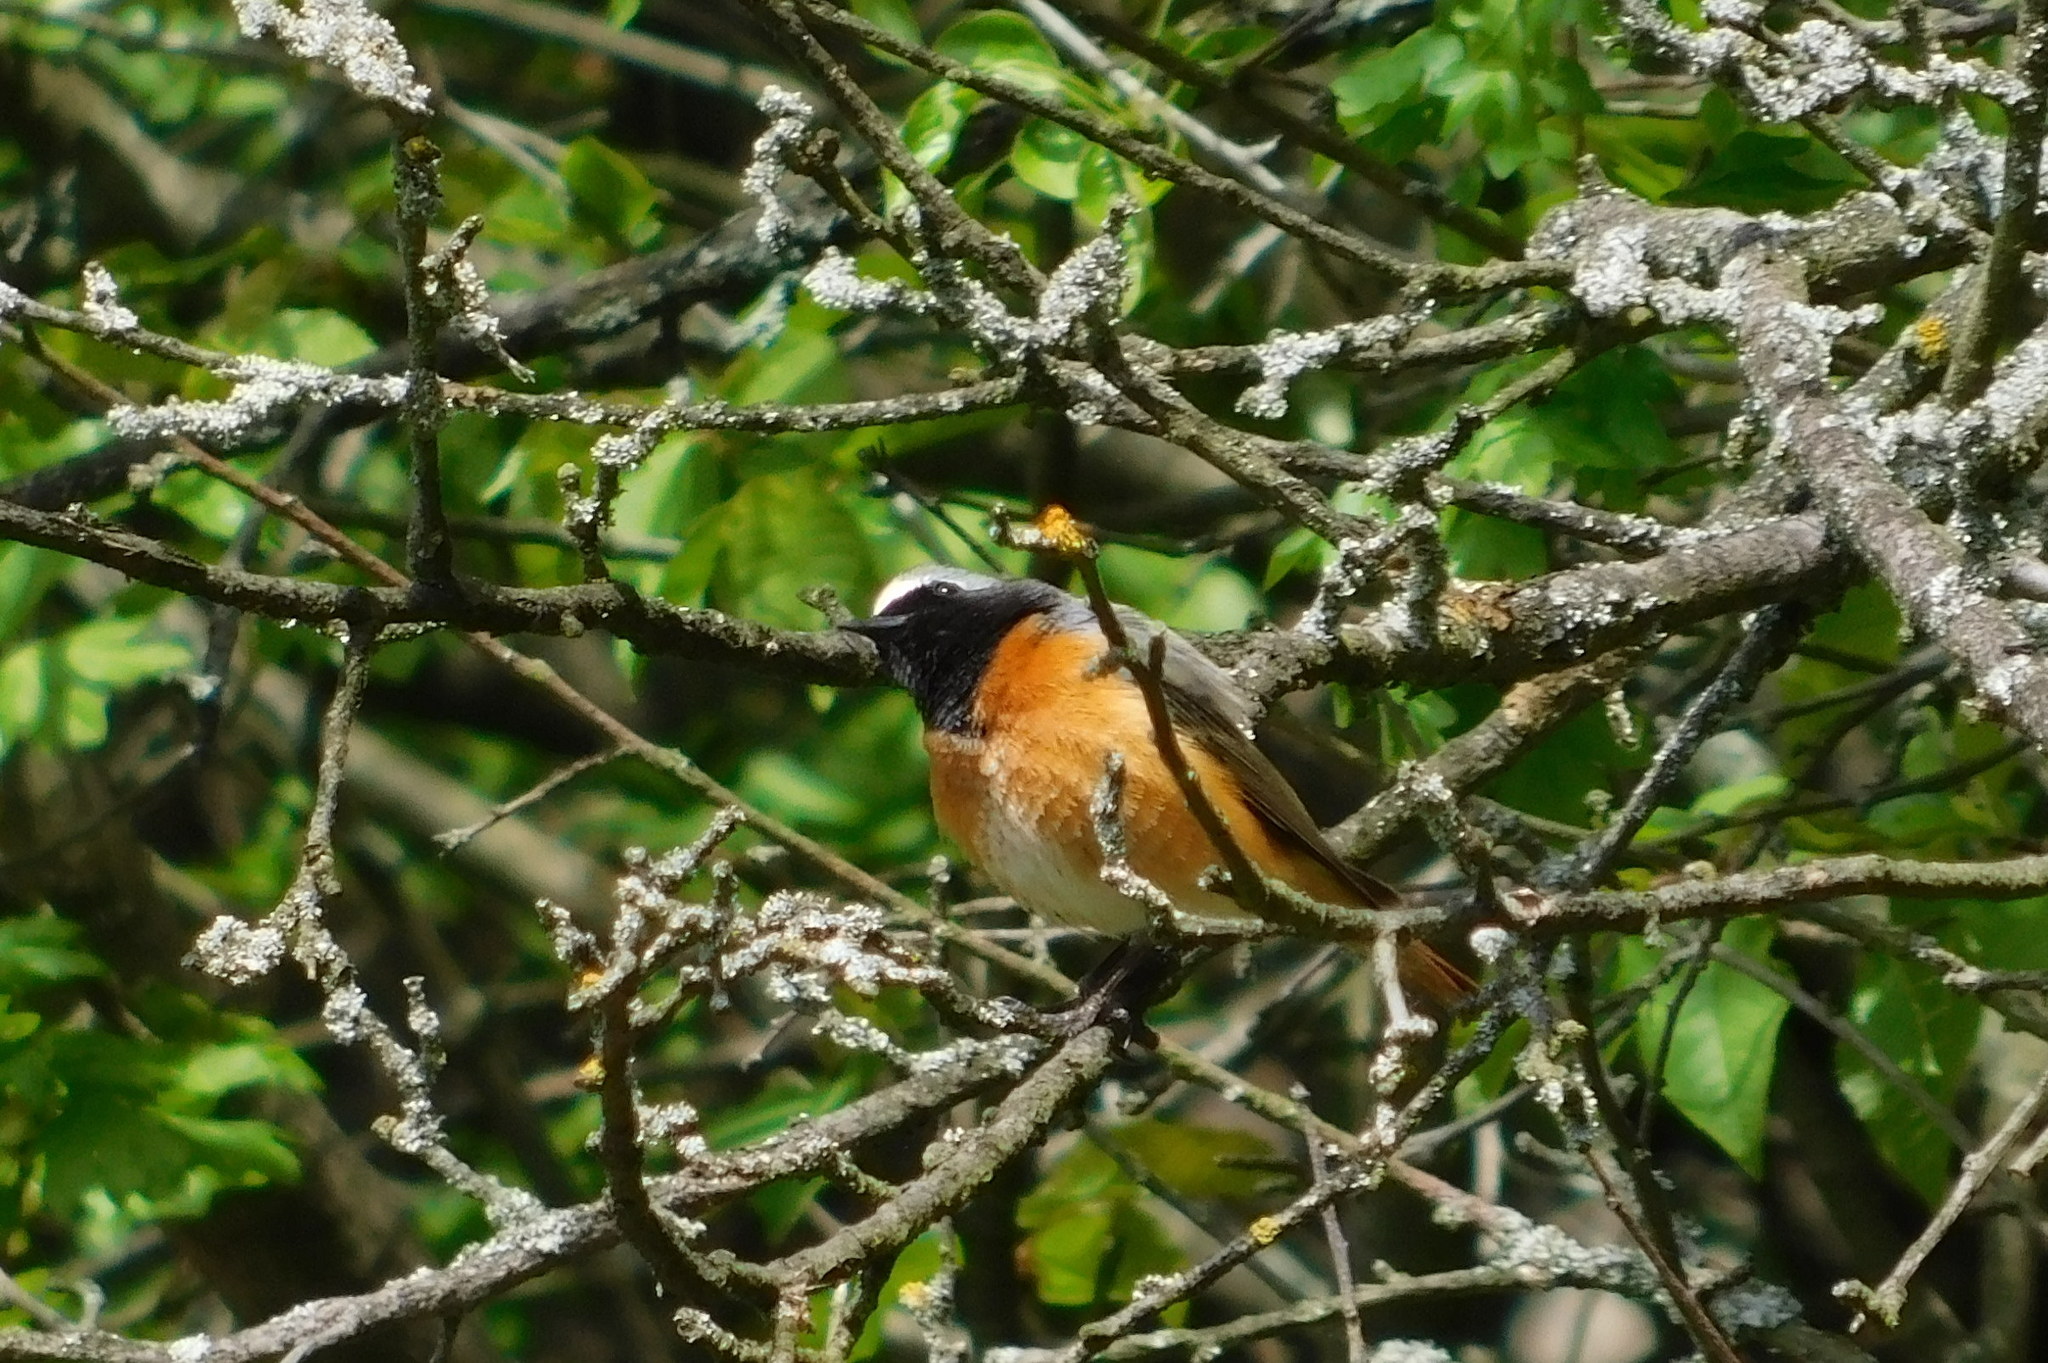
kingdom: Animalia
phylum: Chordata
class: Aves
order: Passeriformes
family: Muscicapidae
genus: Phoenicurus
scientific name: Phoenicurus phoenicurus
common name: Common redstart
